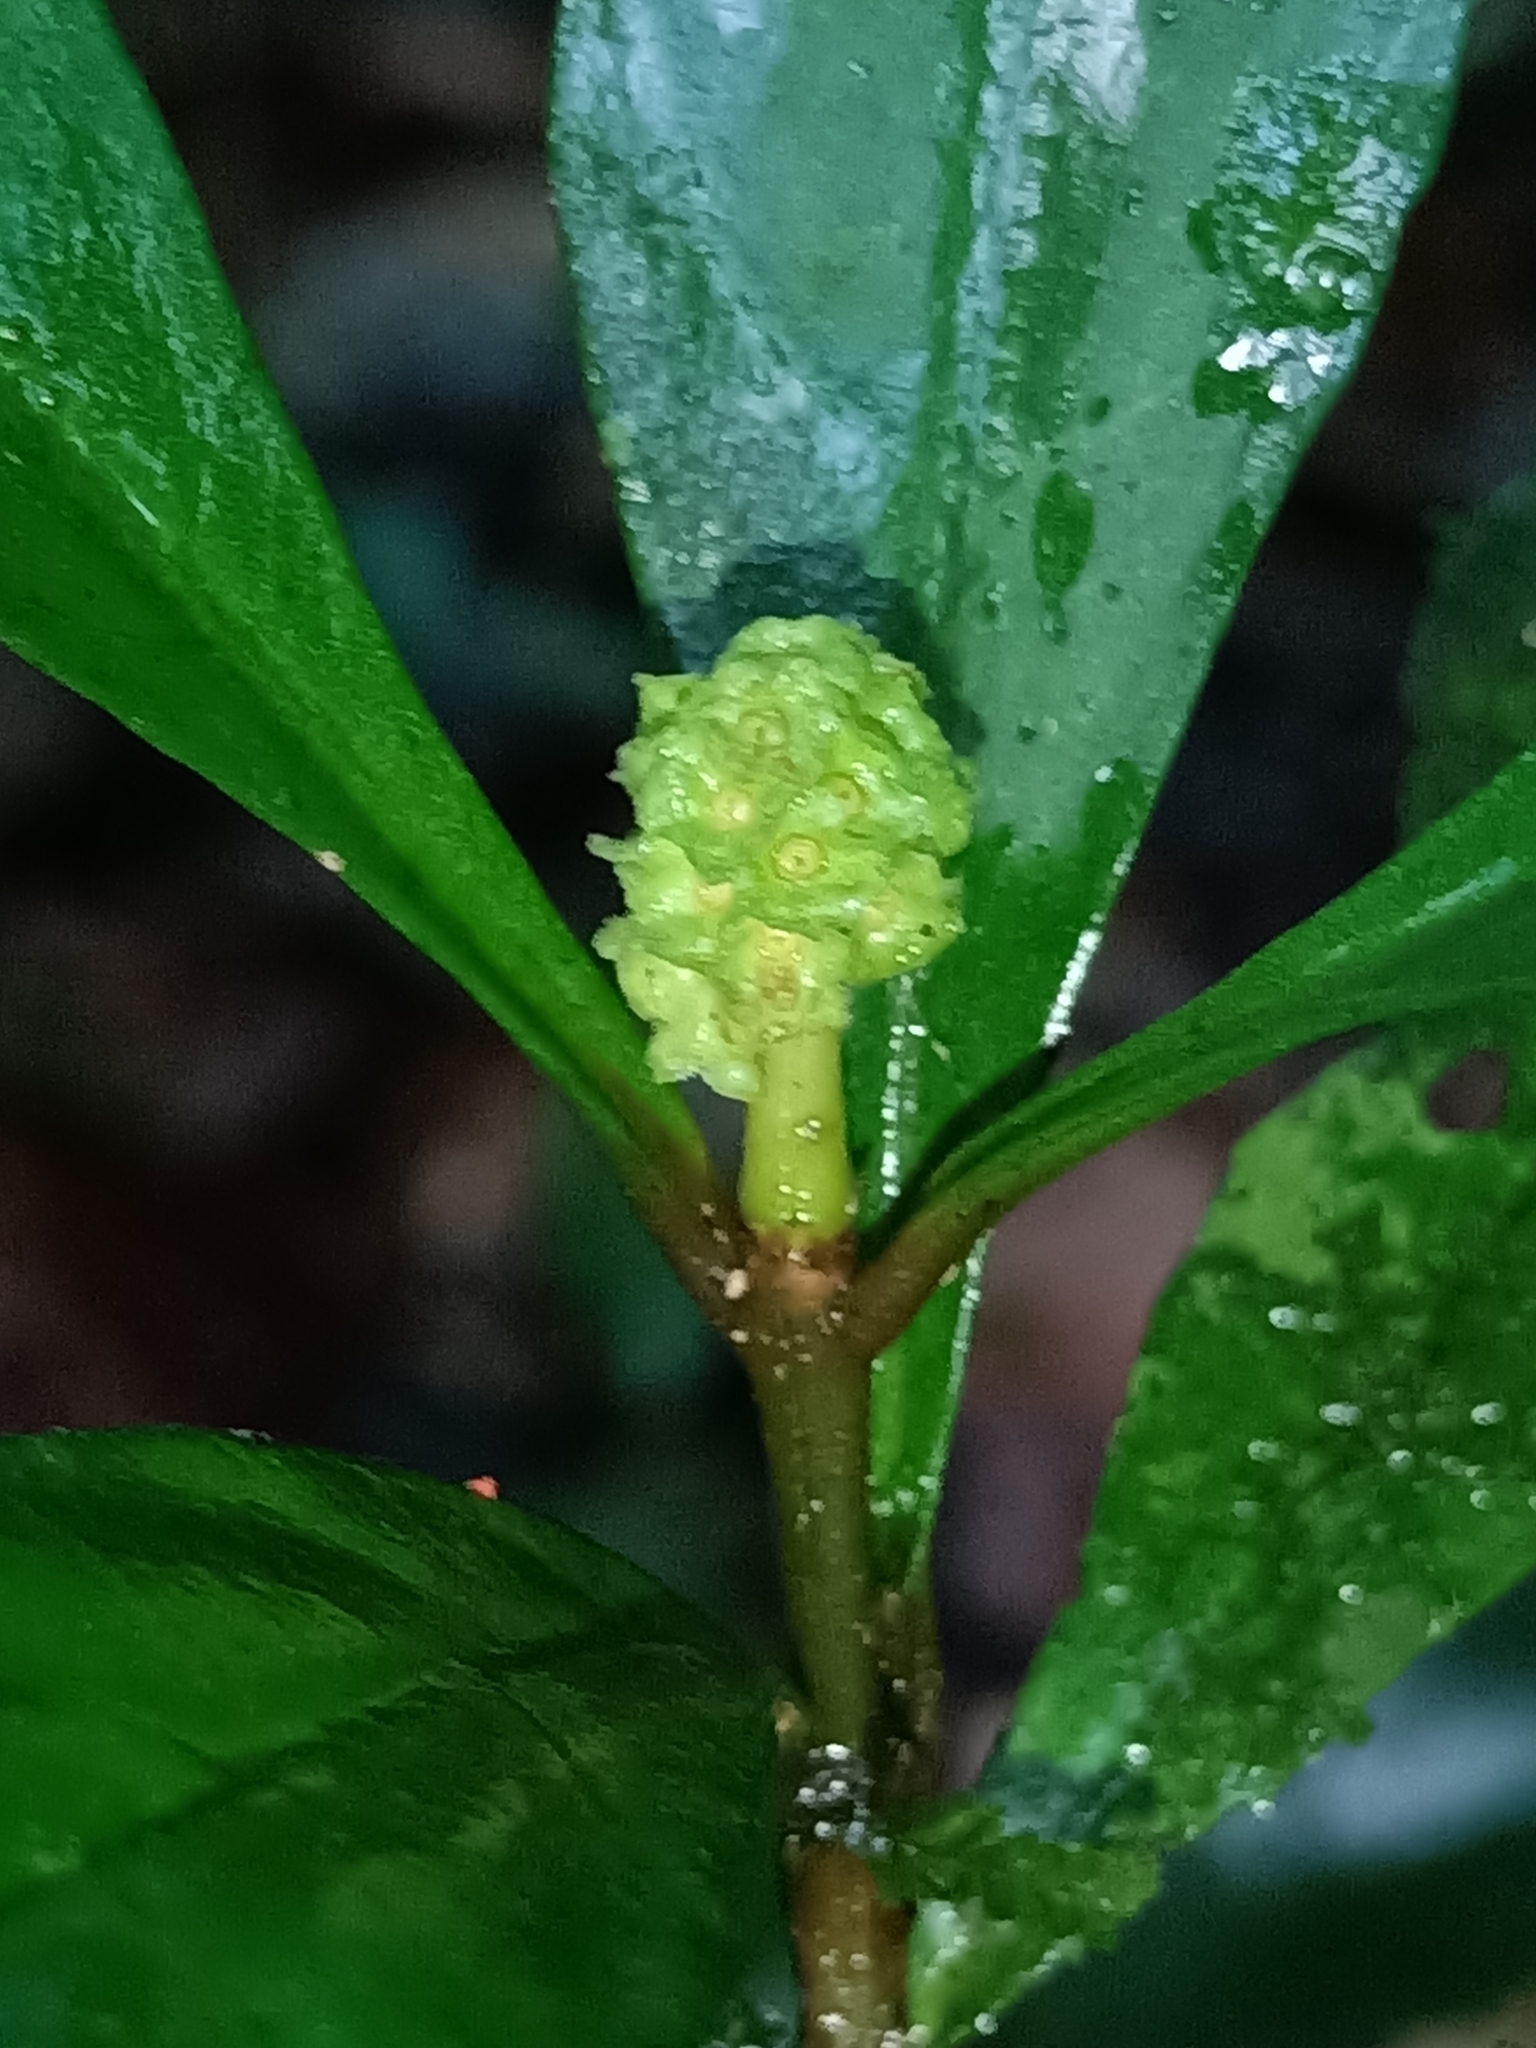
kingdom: Plantae
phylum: Tracheophyta
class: Magnoliopsida
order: Gentianales
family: Rubiaceae
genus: Eumachia
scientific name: Eumachia guianensis
